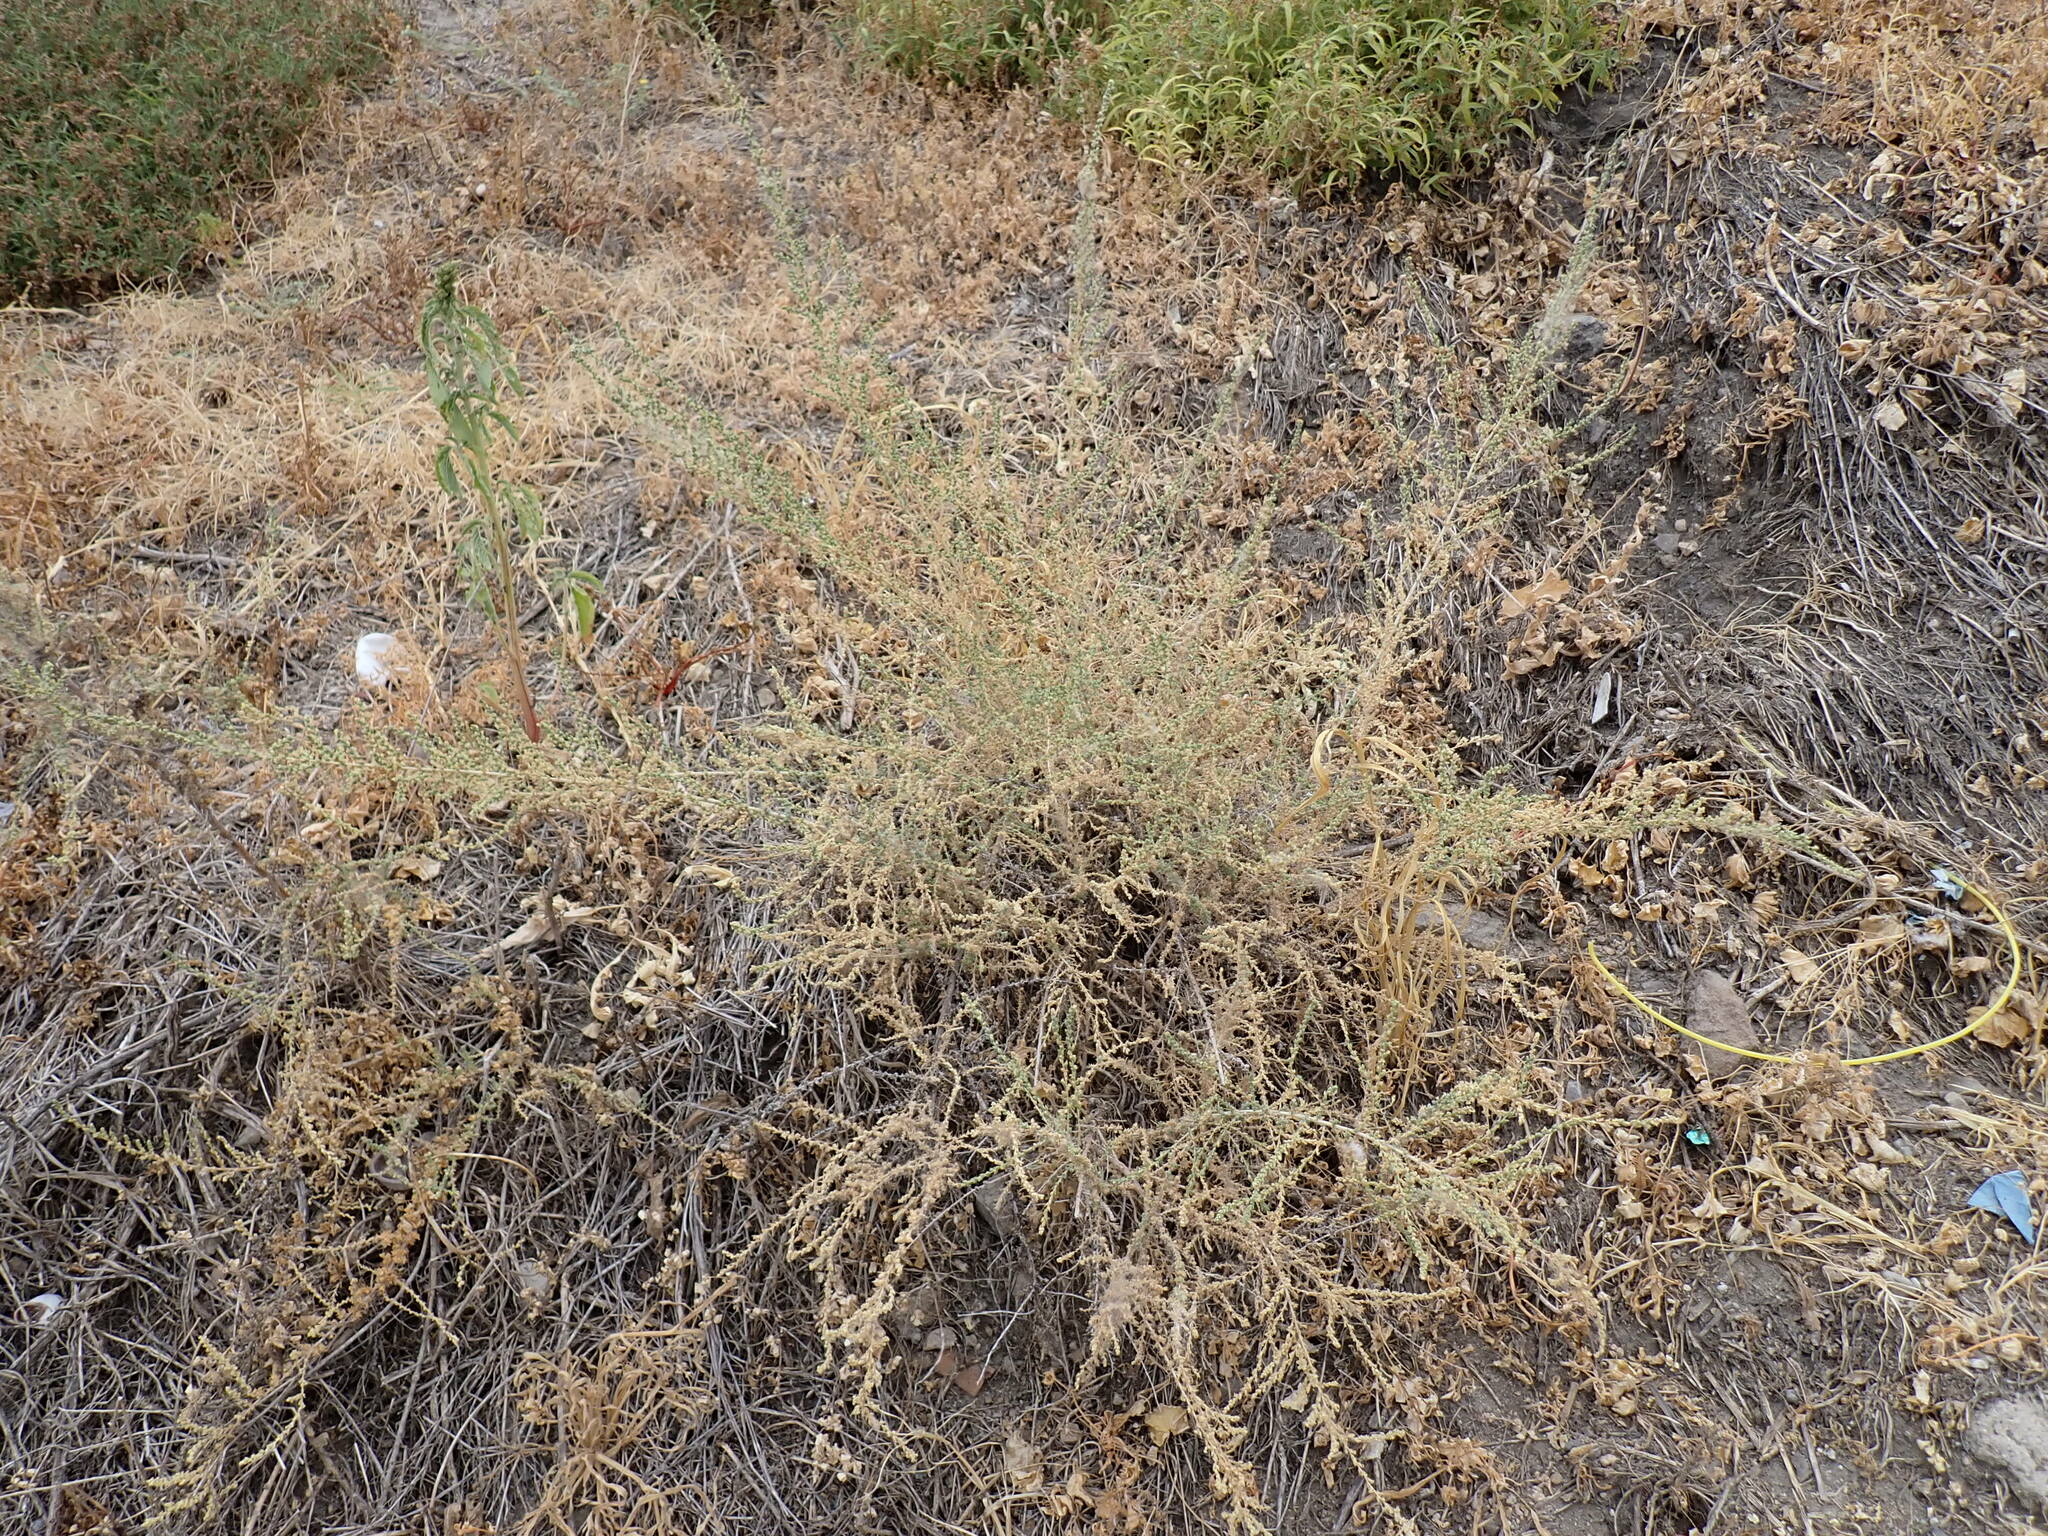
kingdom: Plantae
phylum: Tracheophyta
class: Magnoliopsida
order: Caryophyllales
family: Amaranthaceae
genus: Nitrosalsola
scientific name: Nitrosalsola vermiculata
